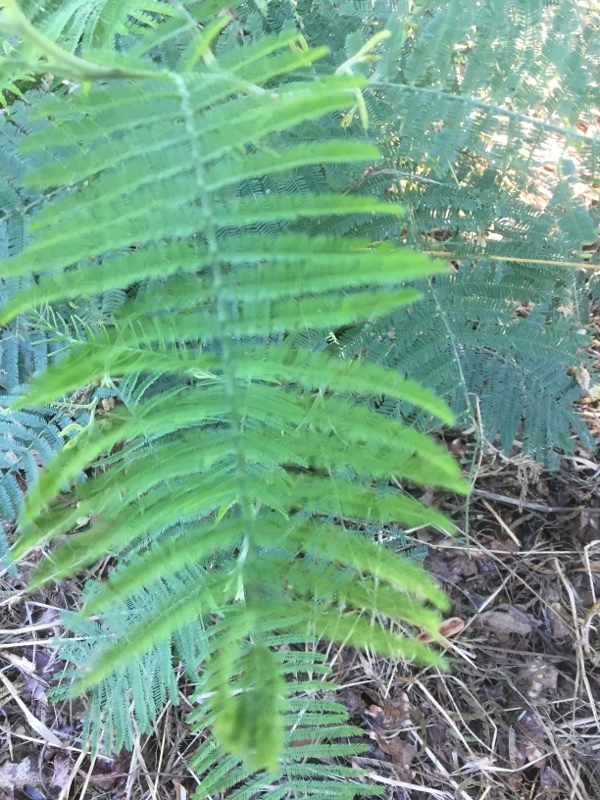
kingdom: Plantae
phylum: Tracheophyta
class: Magnoliopsida
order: Fabales
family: Fabaceae
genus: Acacia
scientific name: Acacia dealbata
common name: Silver wattle
